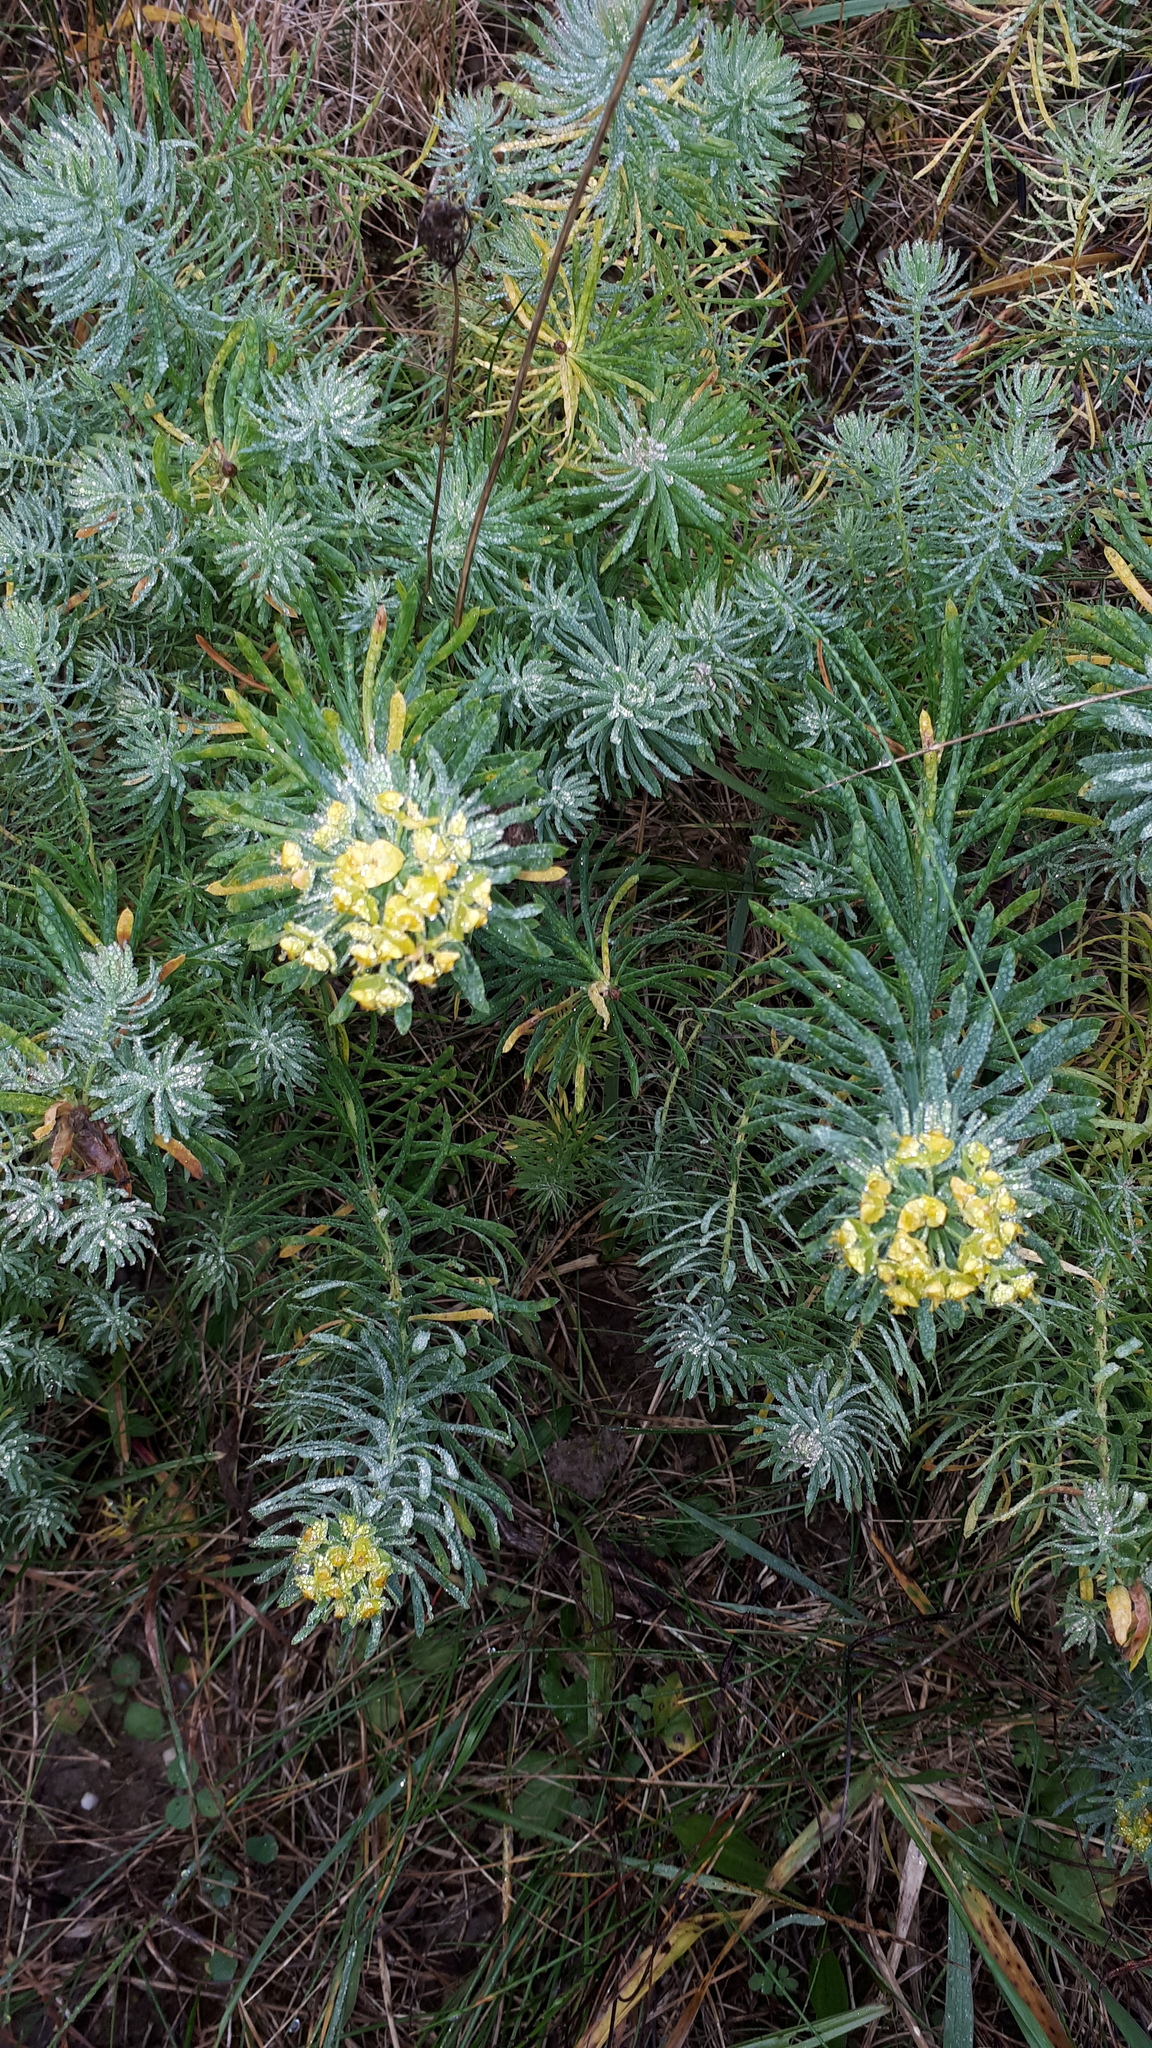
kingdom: Plantae
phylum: Tracheophyta
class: Magnoliopsida
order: Malpighiales
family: Euphorbiaceae
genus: Euphorbia
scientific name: Euphorbia cyparissias
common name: Cypress spurge
